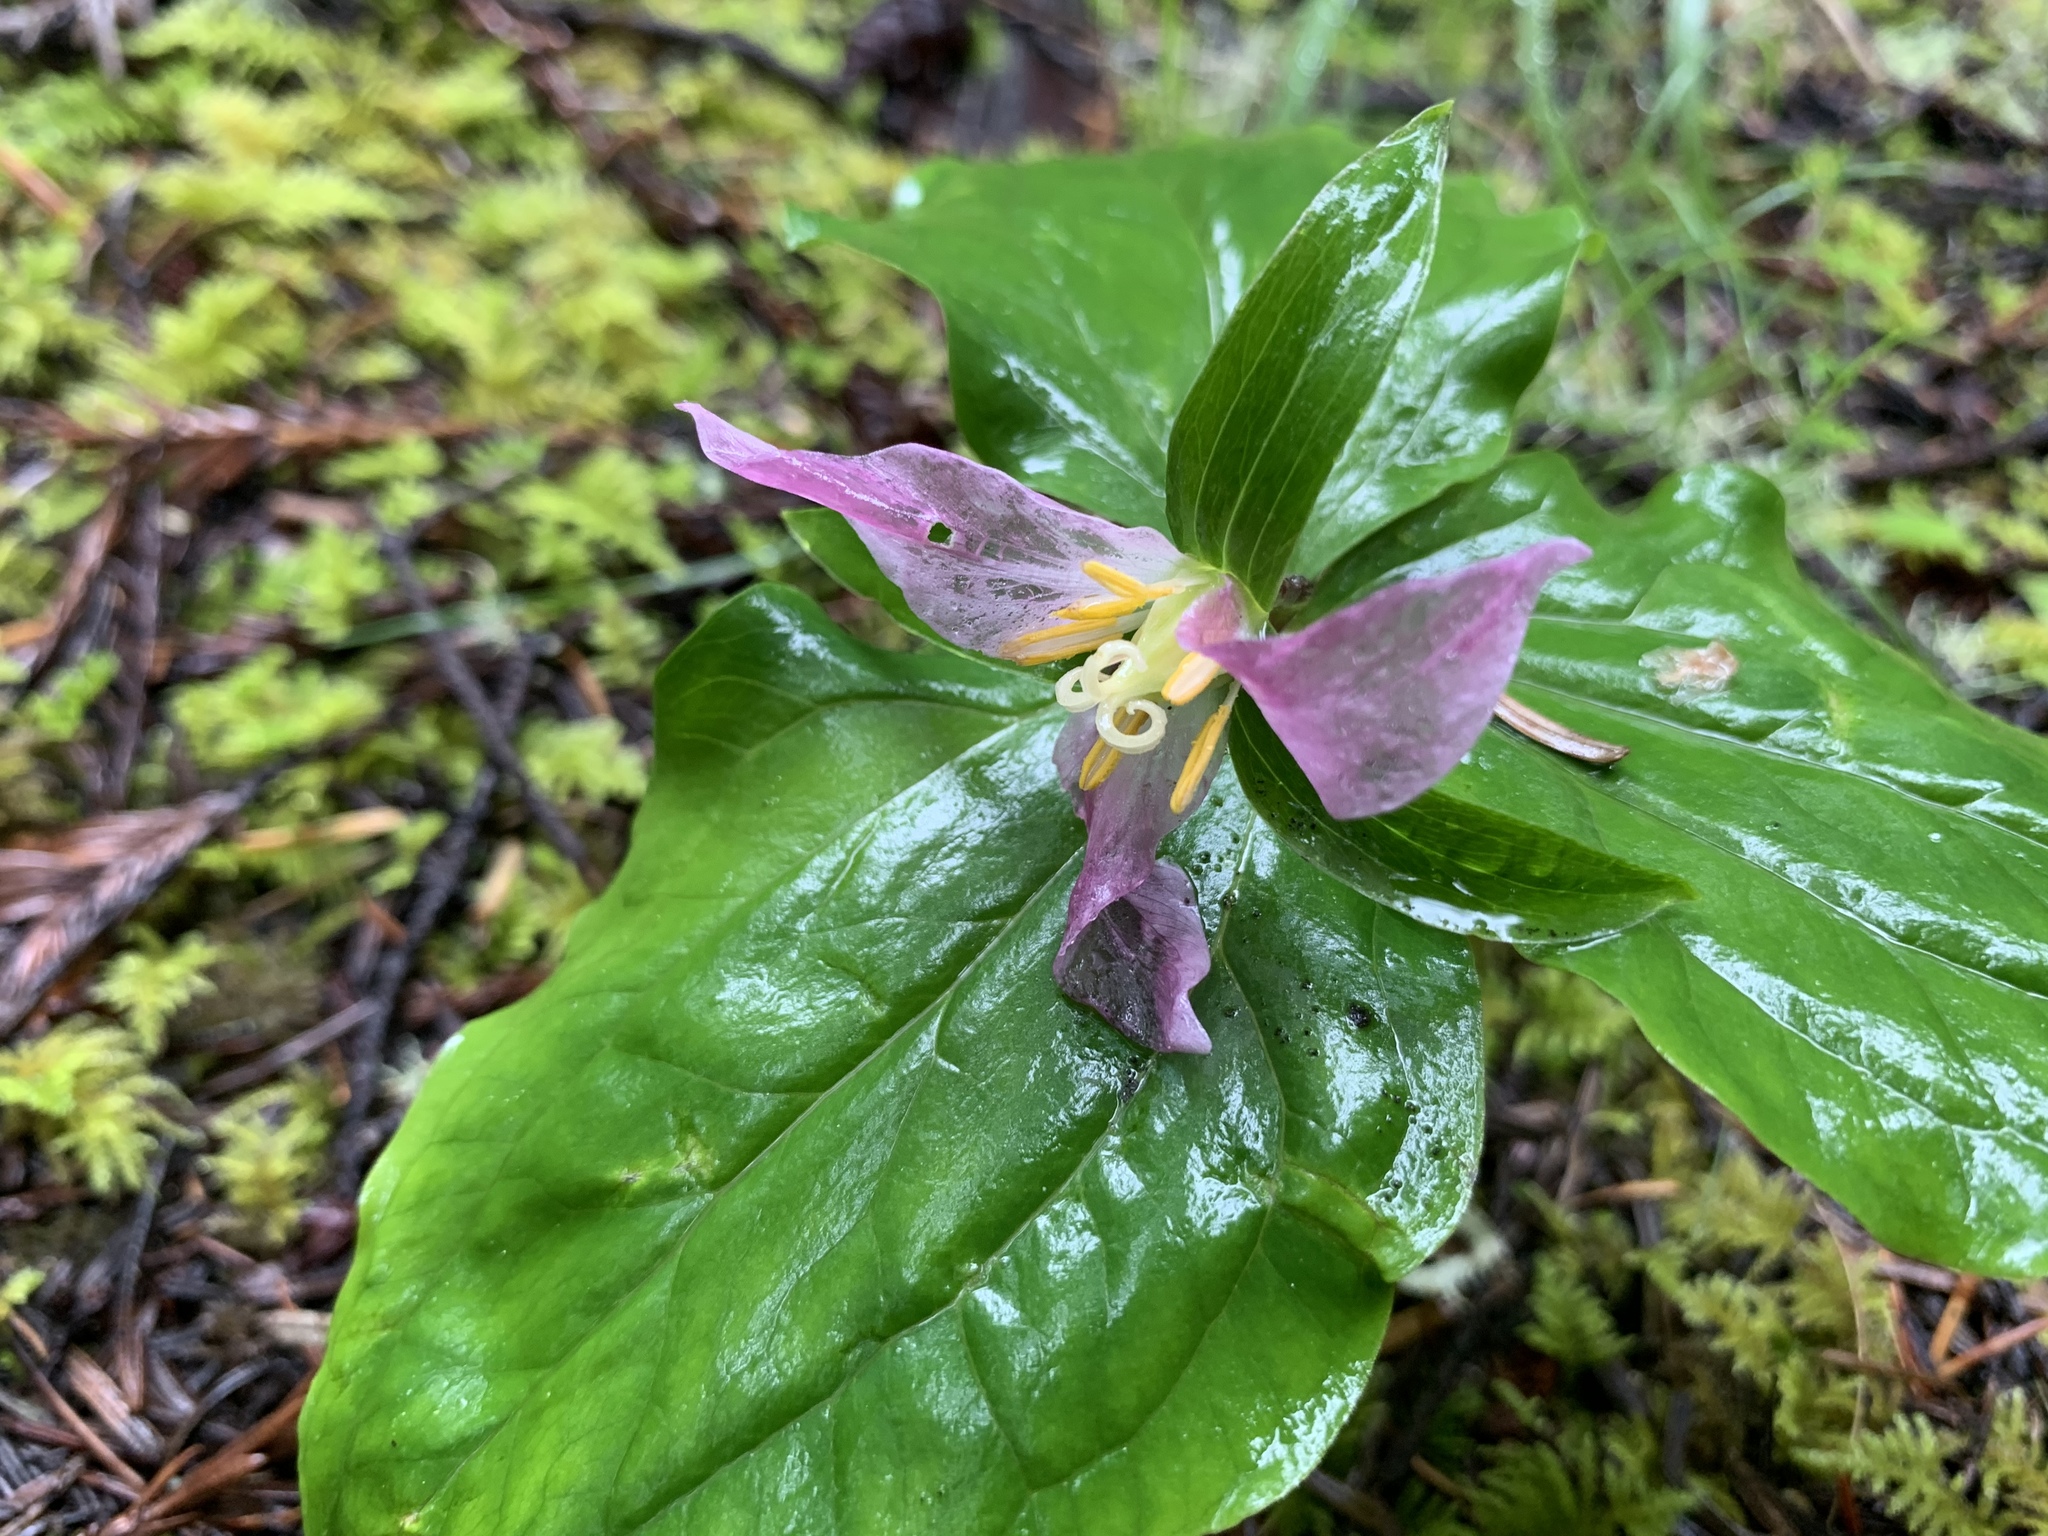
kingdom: Plantae
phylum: Tracheophyta
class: Liliopsida
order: Liliales
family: Melanthiaceae
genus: Trillium
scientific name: Trillium ovatum
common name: Pacific trillium
